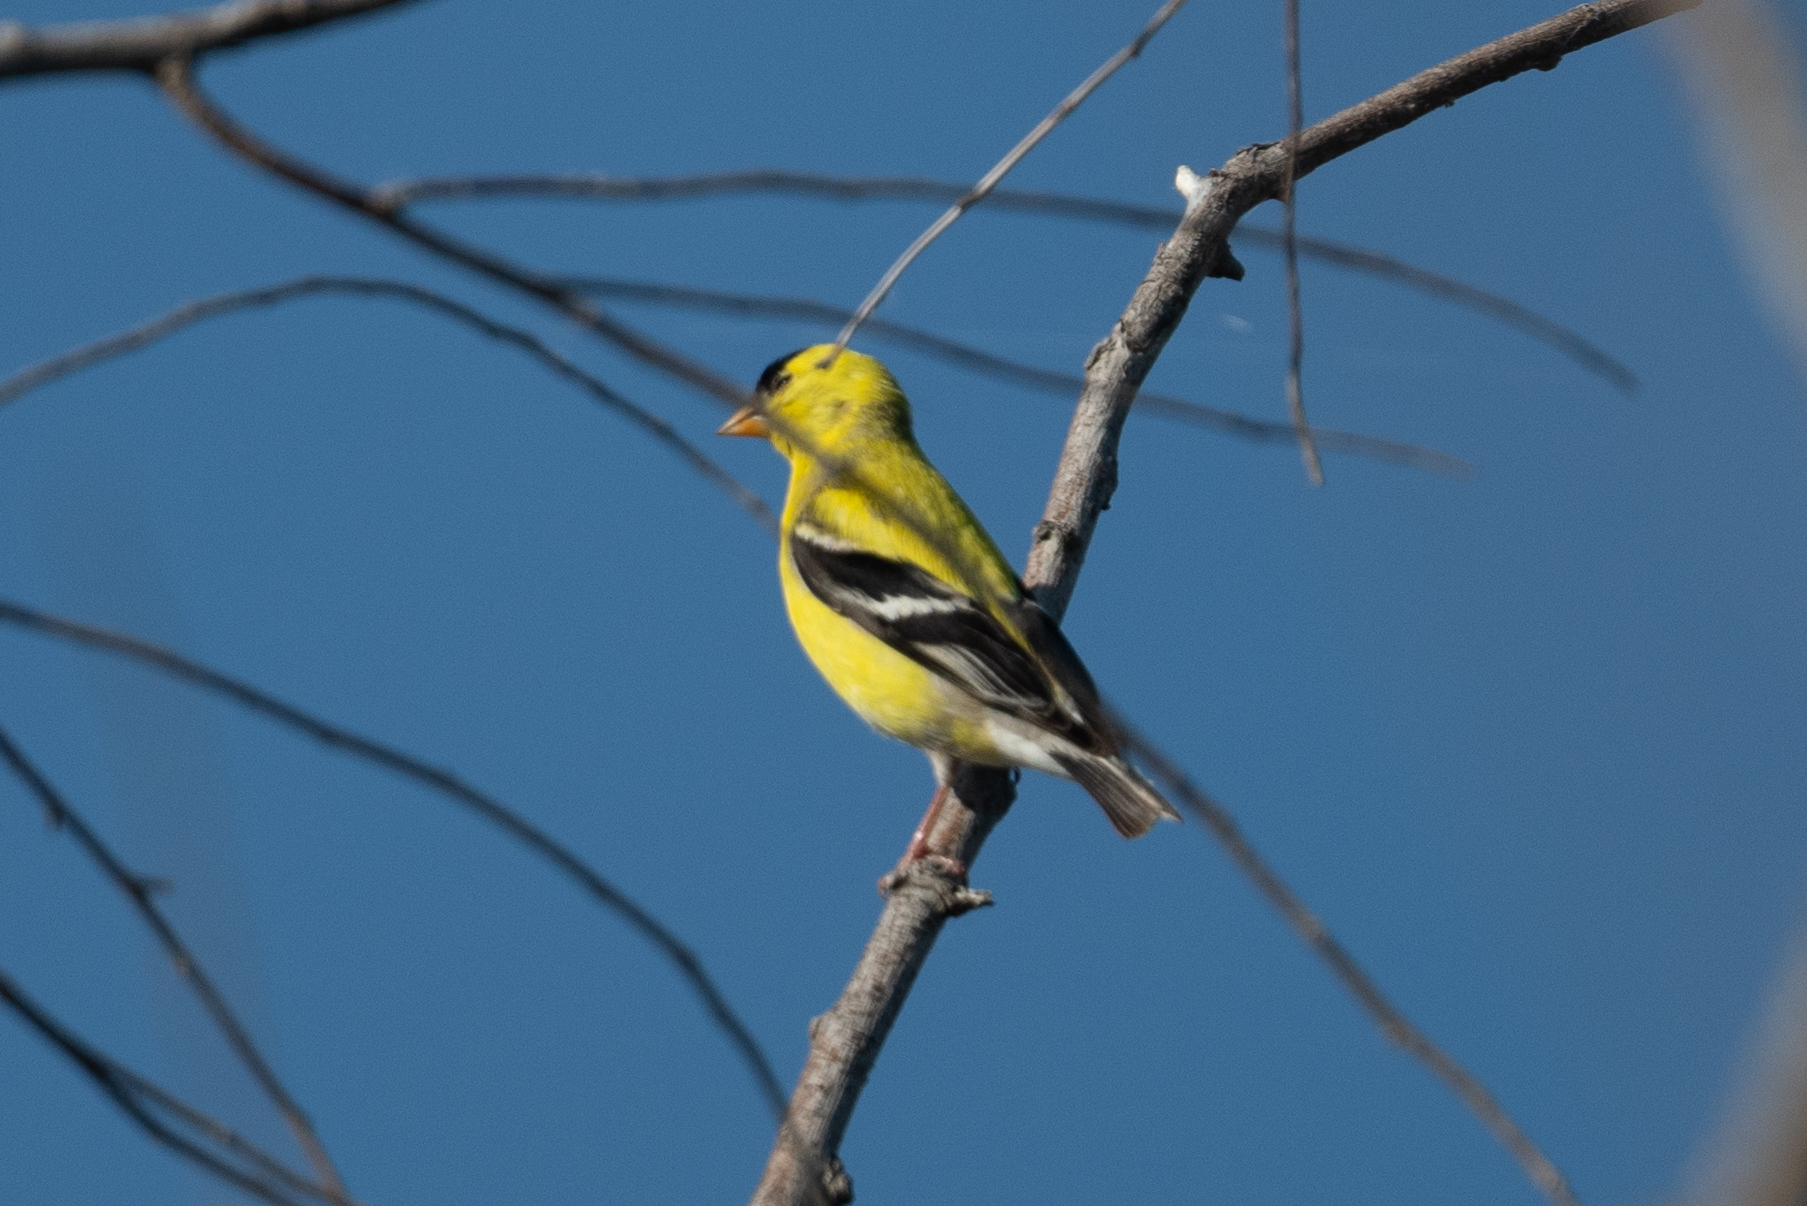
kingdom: Animalia
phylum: Chordata
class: Aves
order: Passeriformes
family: Fringillidae
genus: Spinus
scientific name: Spinus tristis
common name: American goldfinch
